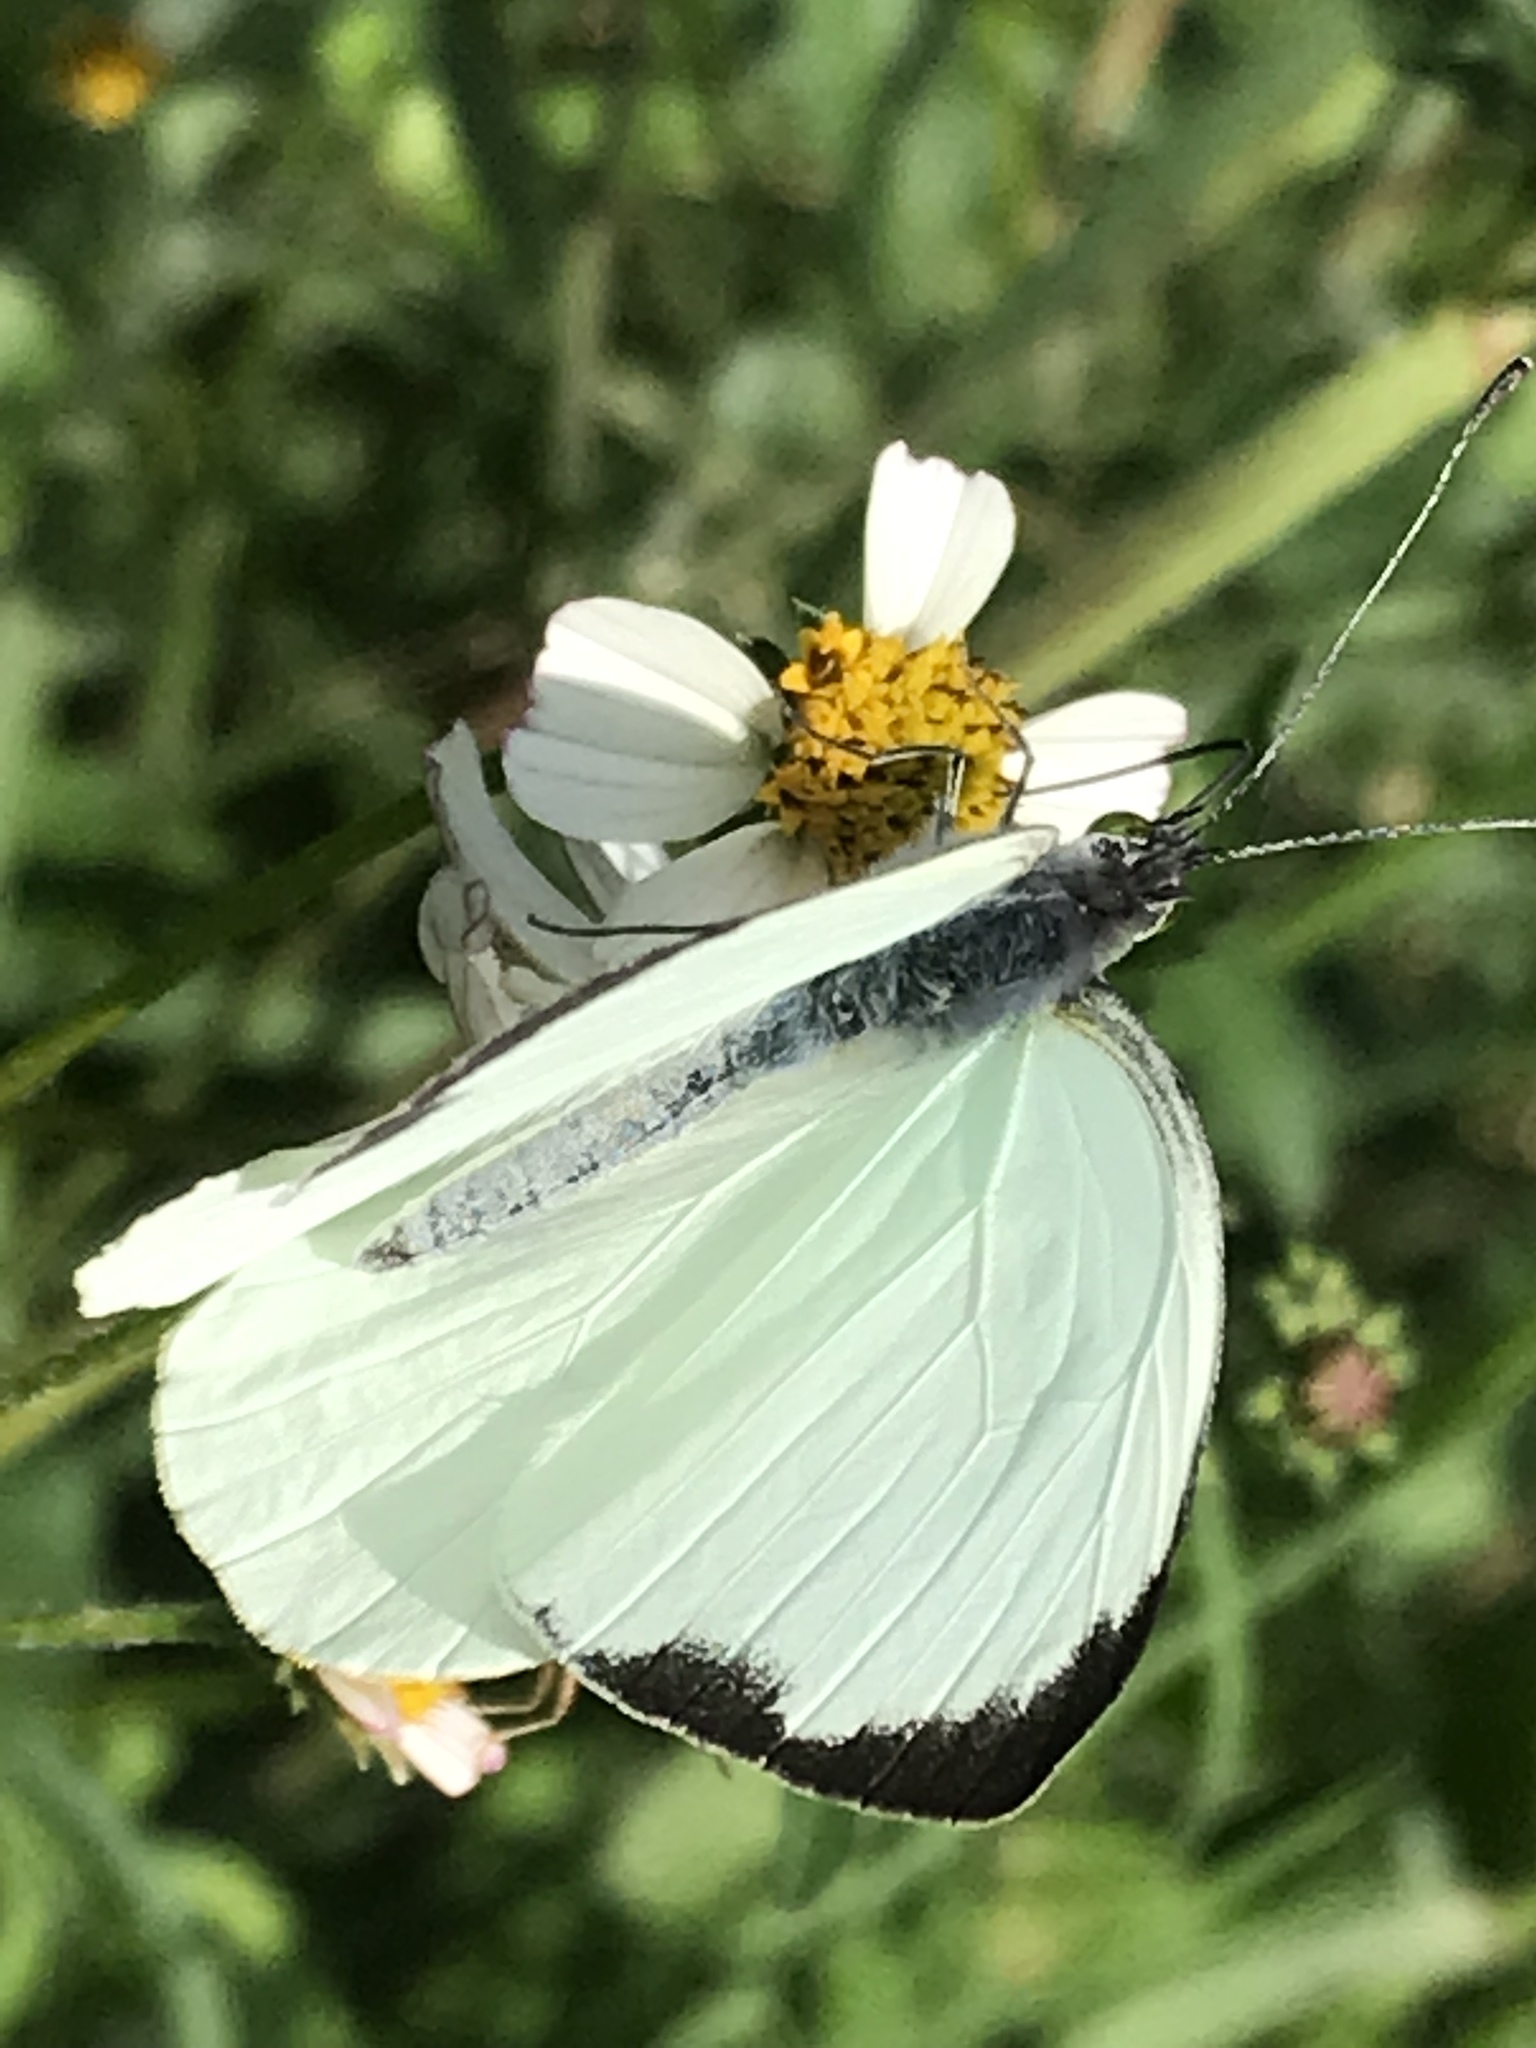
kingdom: Animalia
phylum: Arthropoda
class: Insecta
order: Lepidoptera
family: Pieridae
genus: Leptophobia
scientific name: Leptophobia aripa
